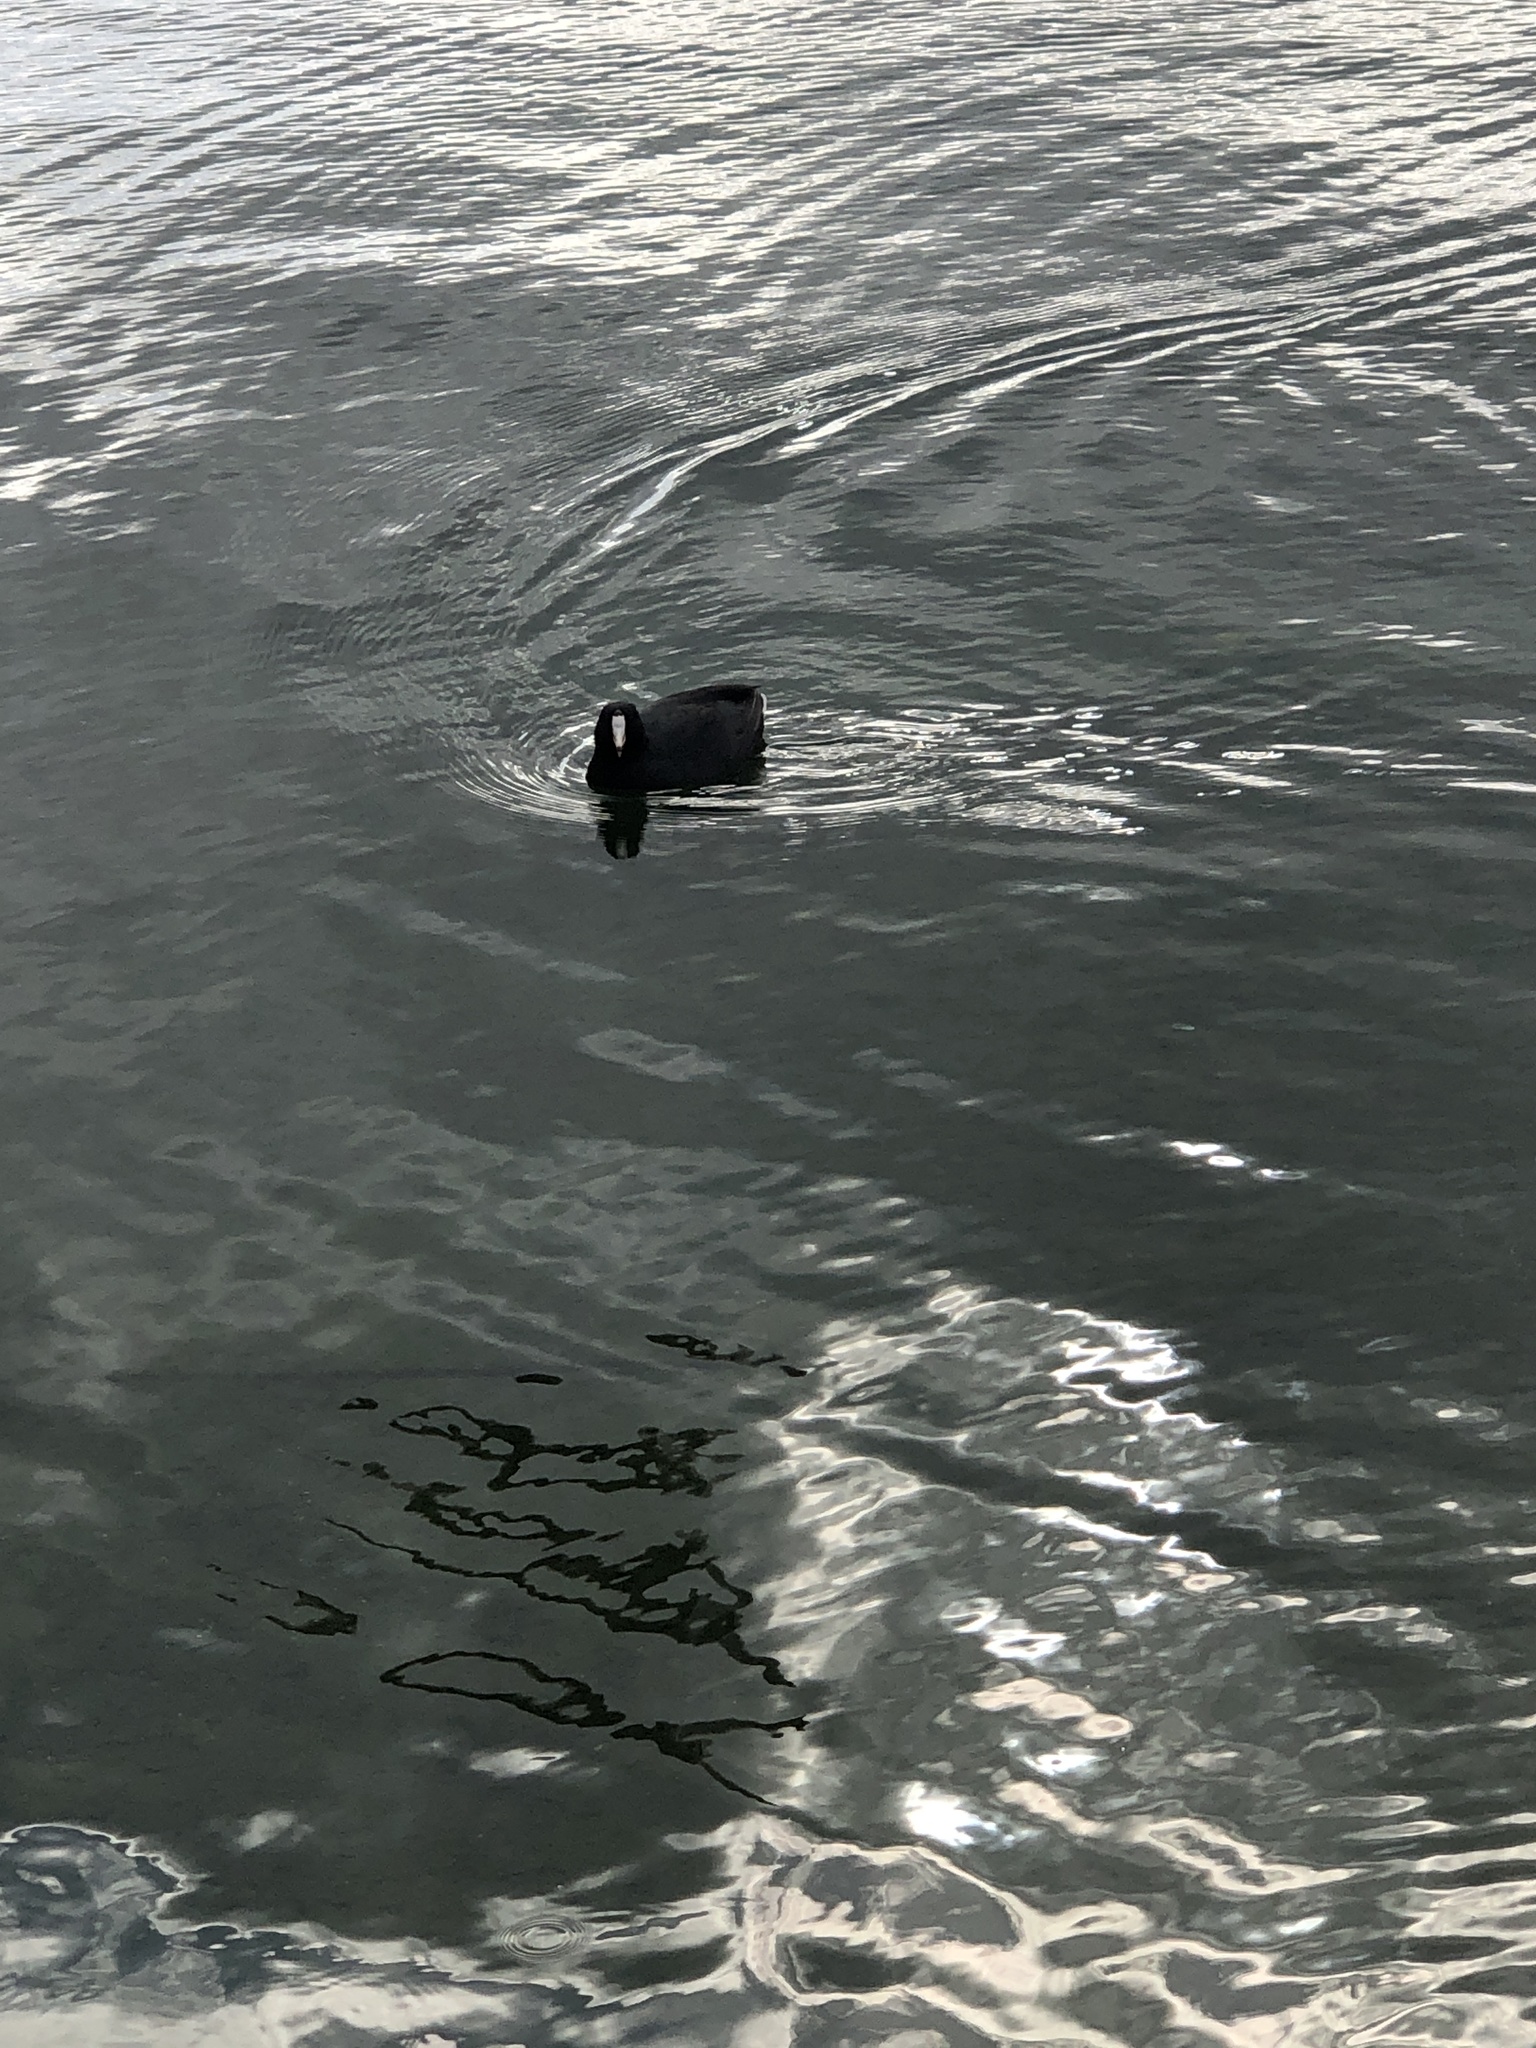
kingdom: Animalia
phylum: Chordata
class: Aves
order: Gruiformes
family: Rallidae
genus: Fulica
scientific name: Fulica americana
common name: American coot
